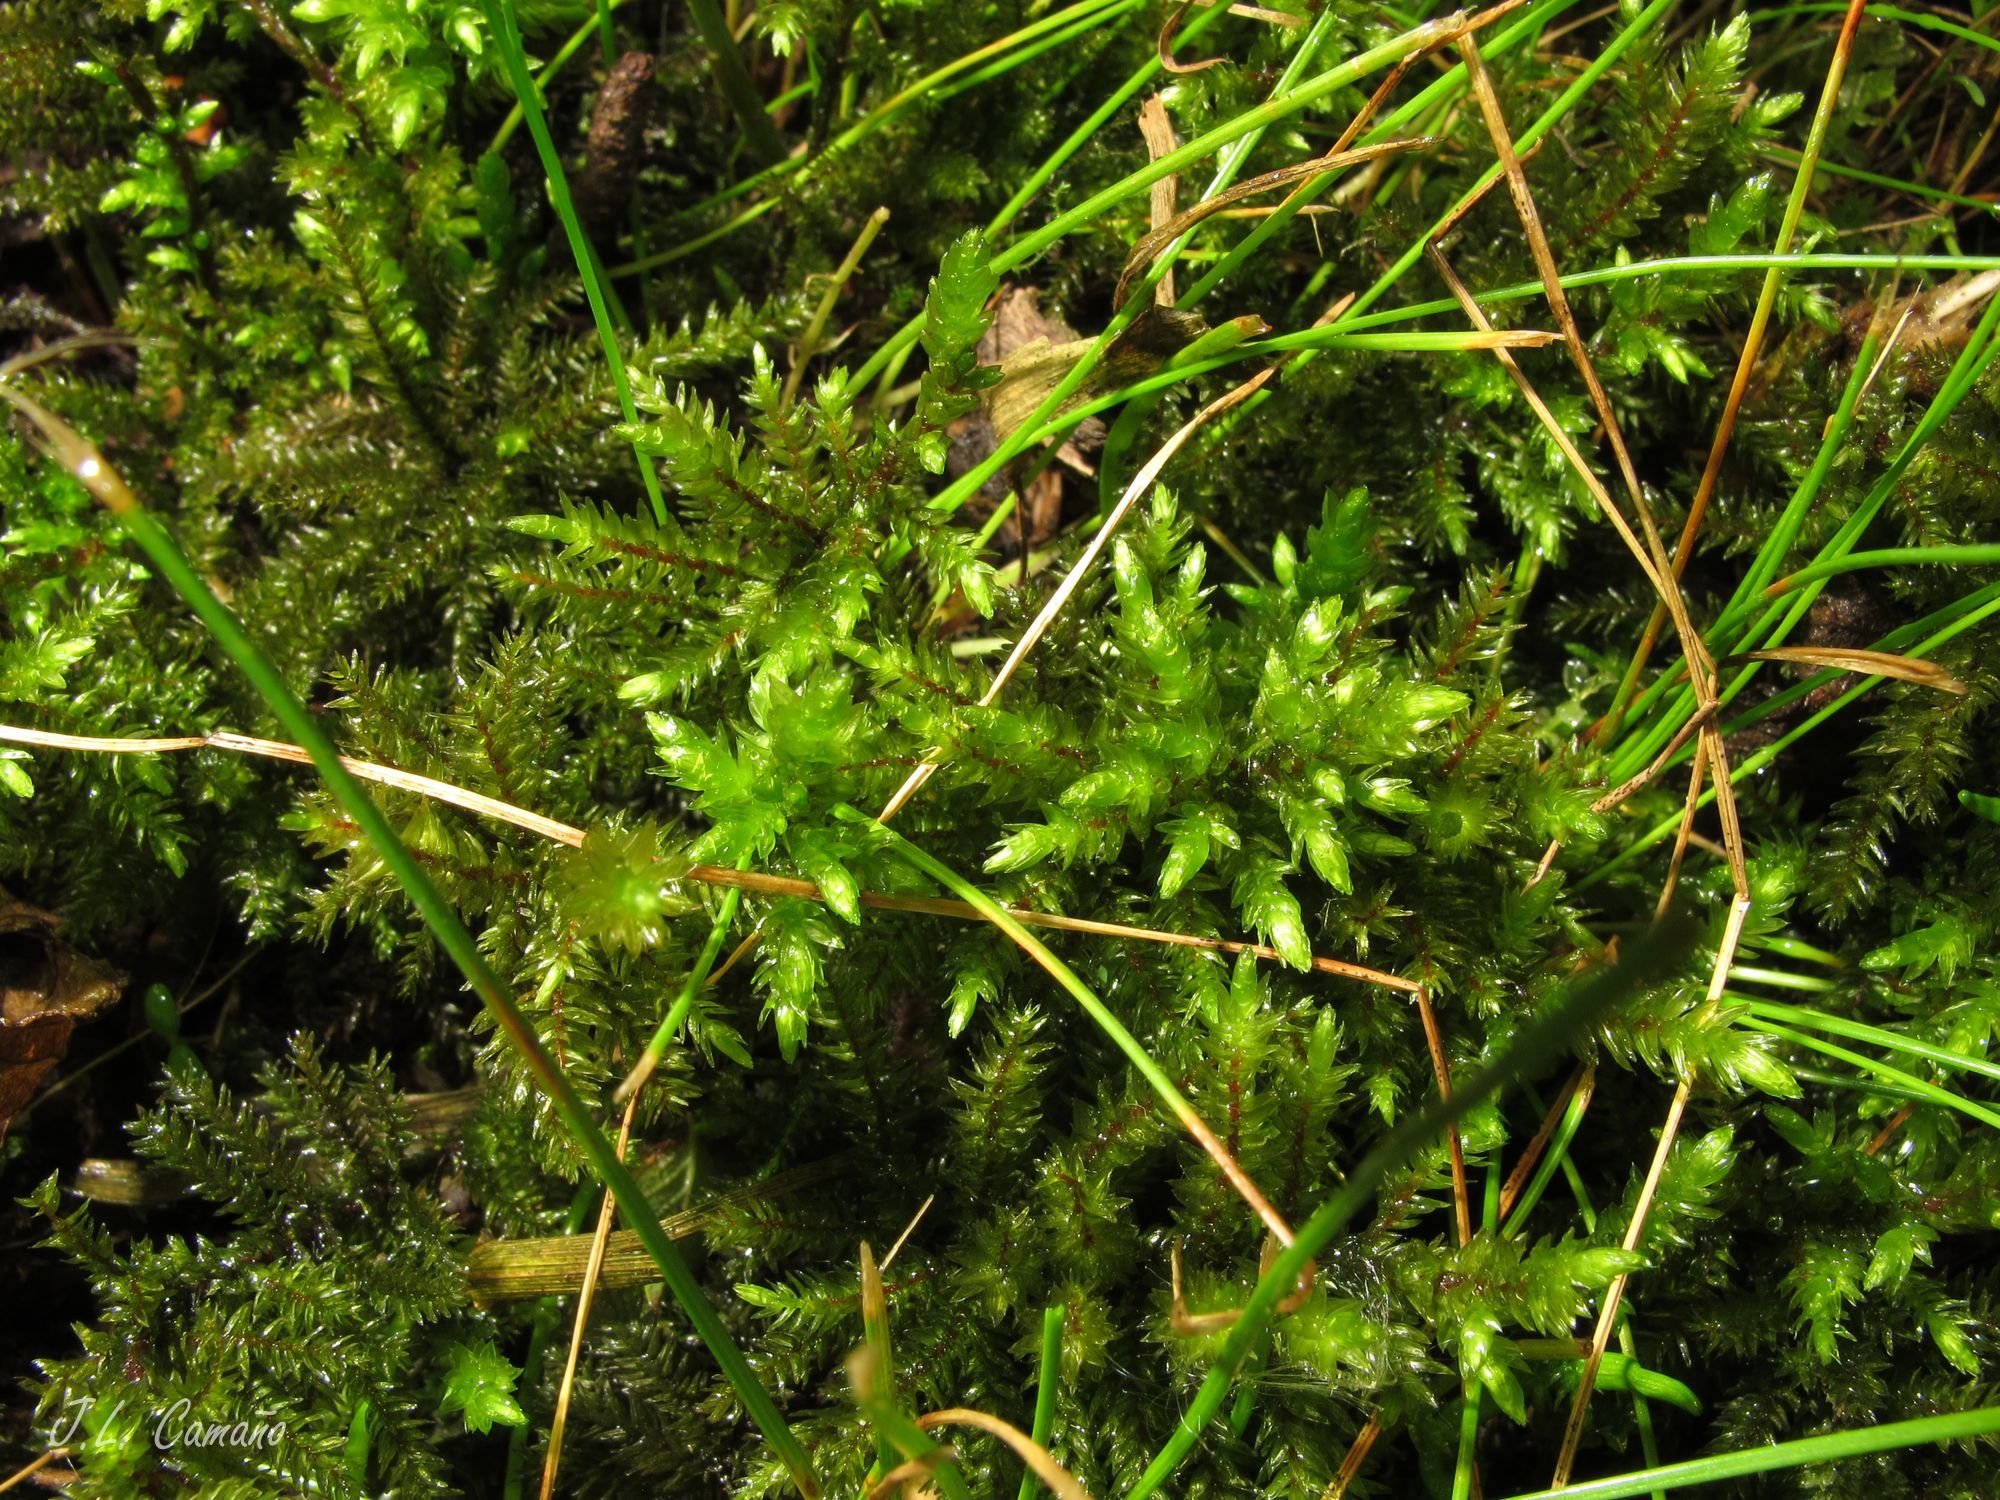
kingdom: Plantae
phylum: Bryophyta
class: Bryopsida
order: Hypnales
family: Climaciaceae
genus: Climacium
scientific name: Climacium dendroides
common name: Northern tree moss
